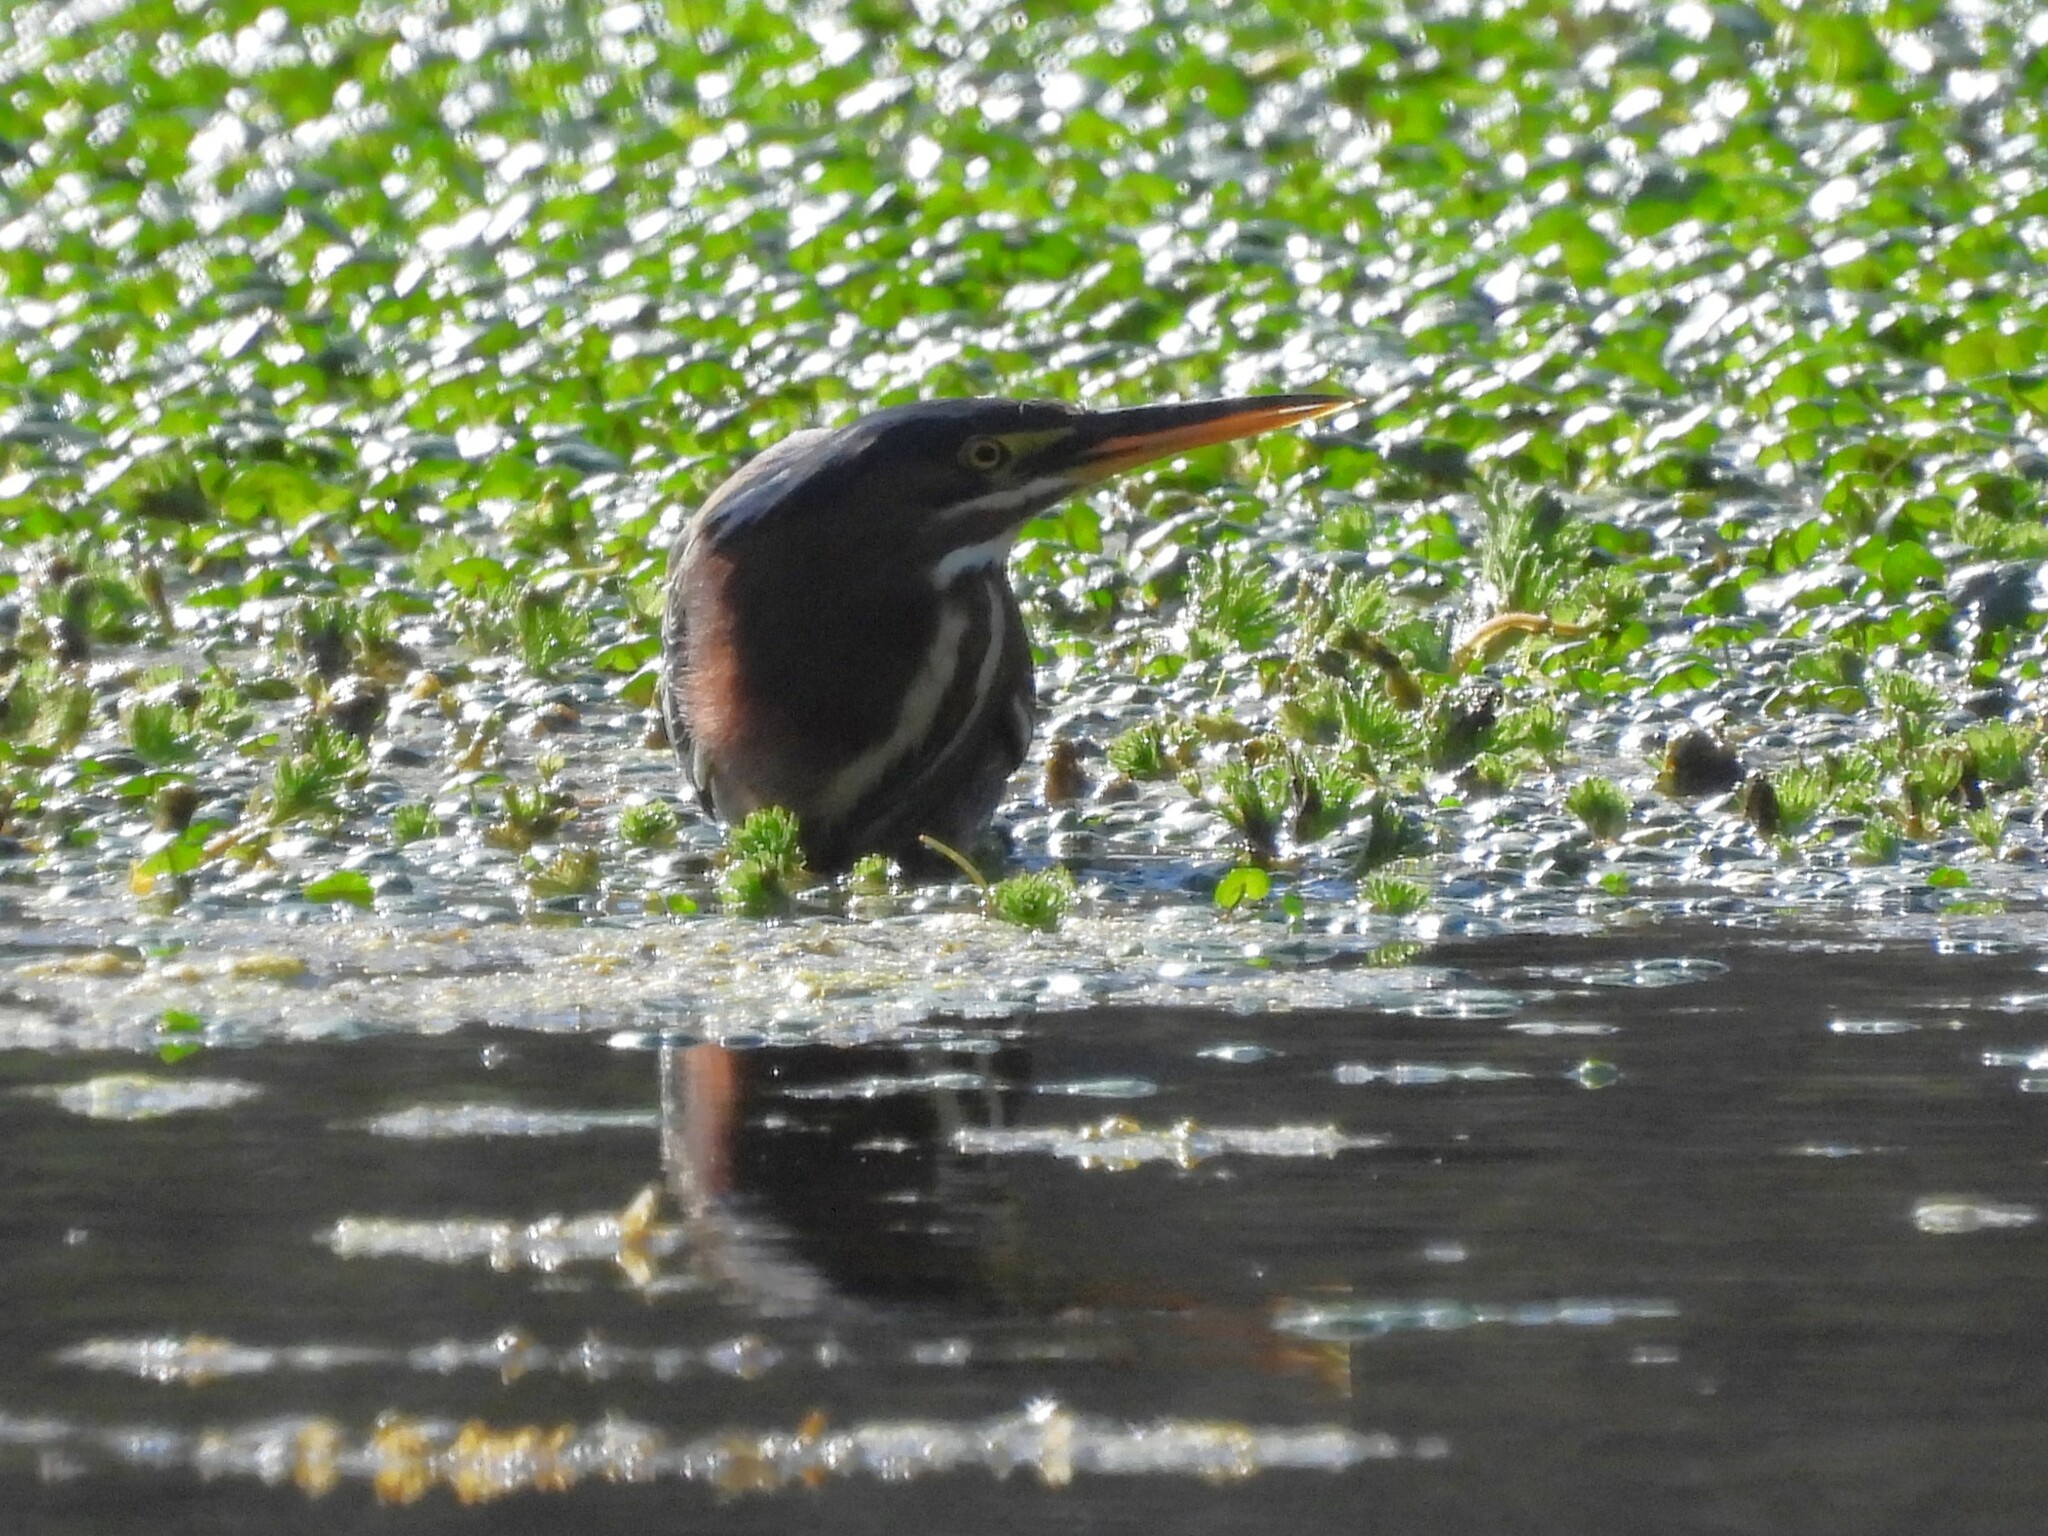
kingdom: Animalia
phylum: Chordata
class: Aves
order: Pelecaniformes
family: Ardeidae
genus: Butorides
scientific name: Butorides virescens
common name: Green heron
